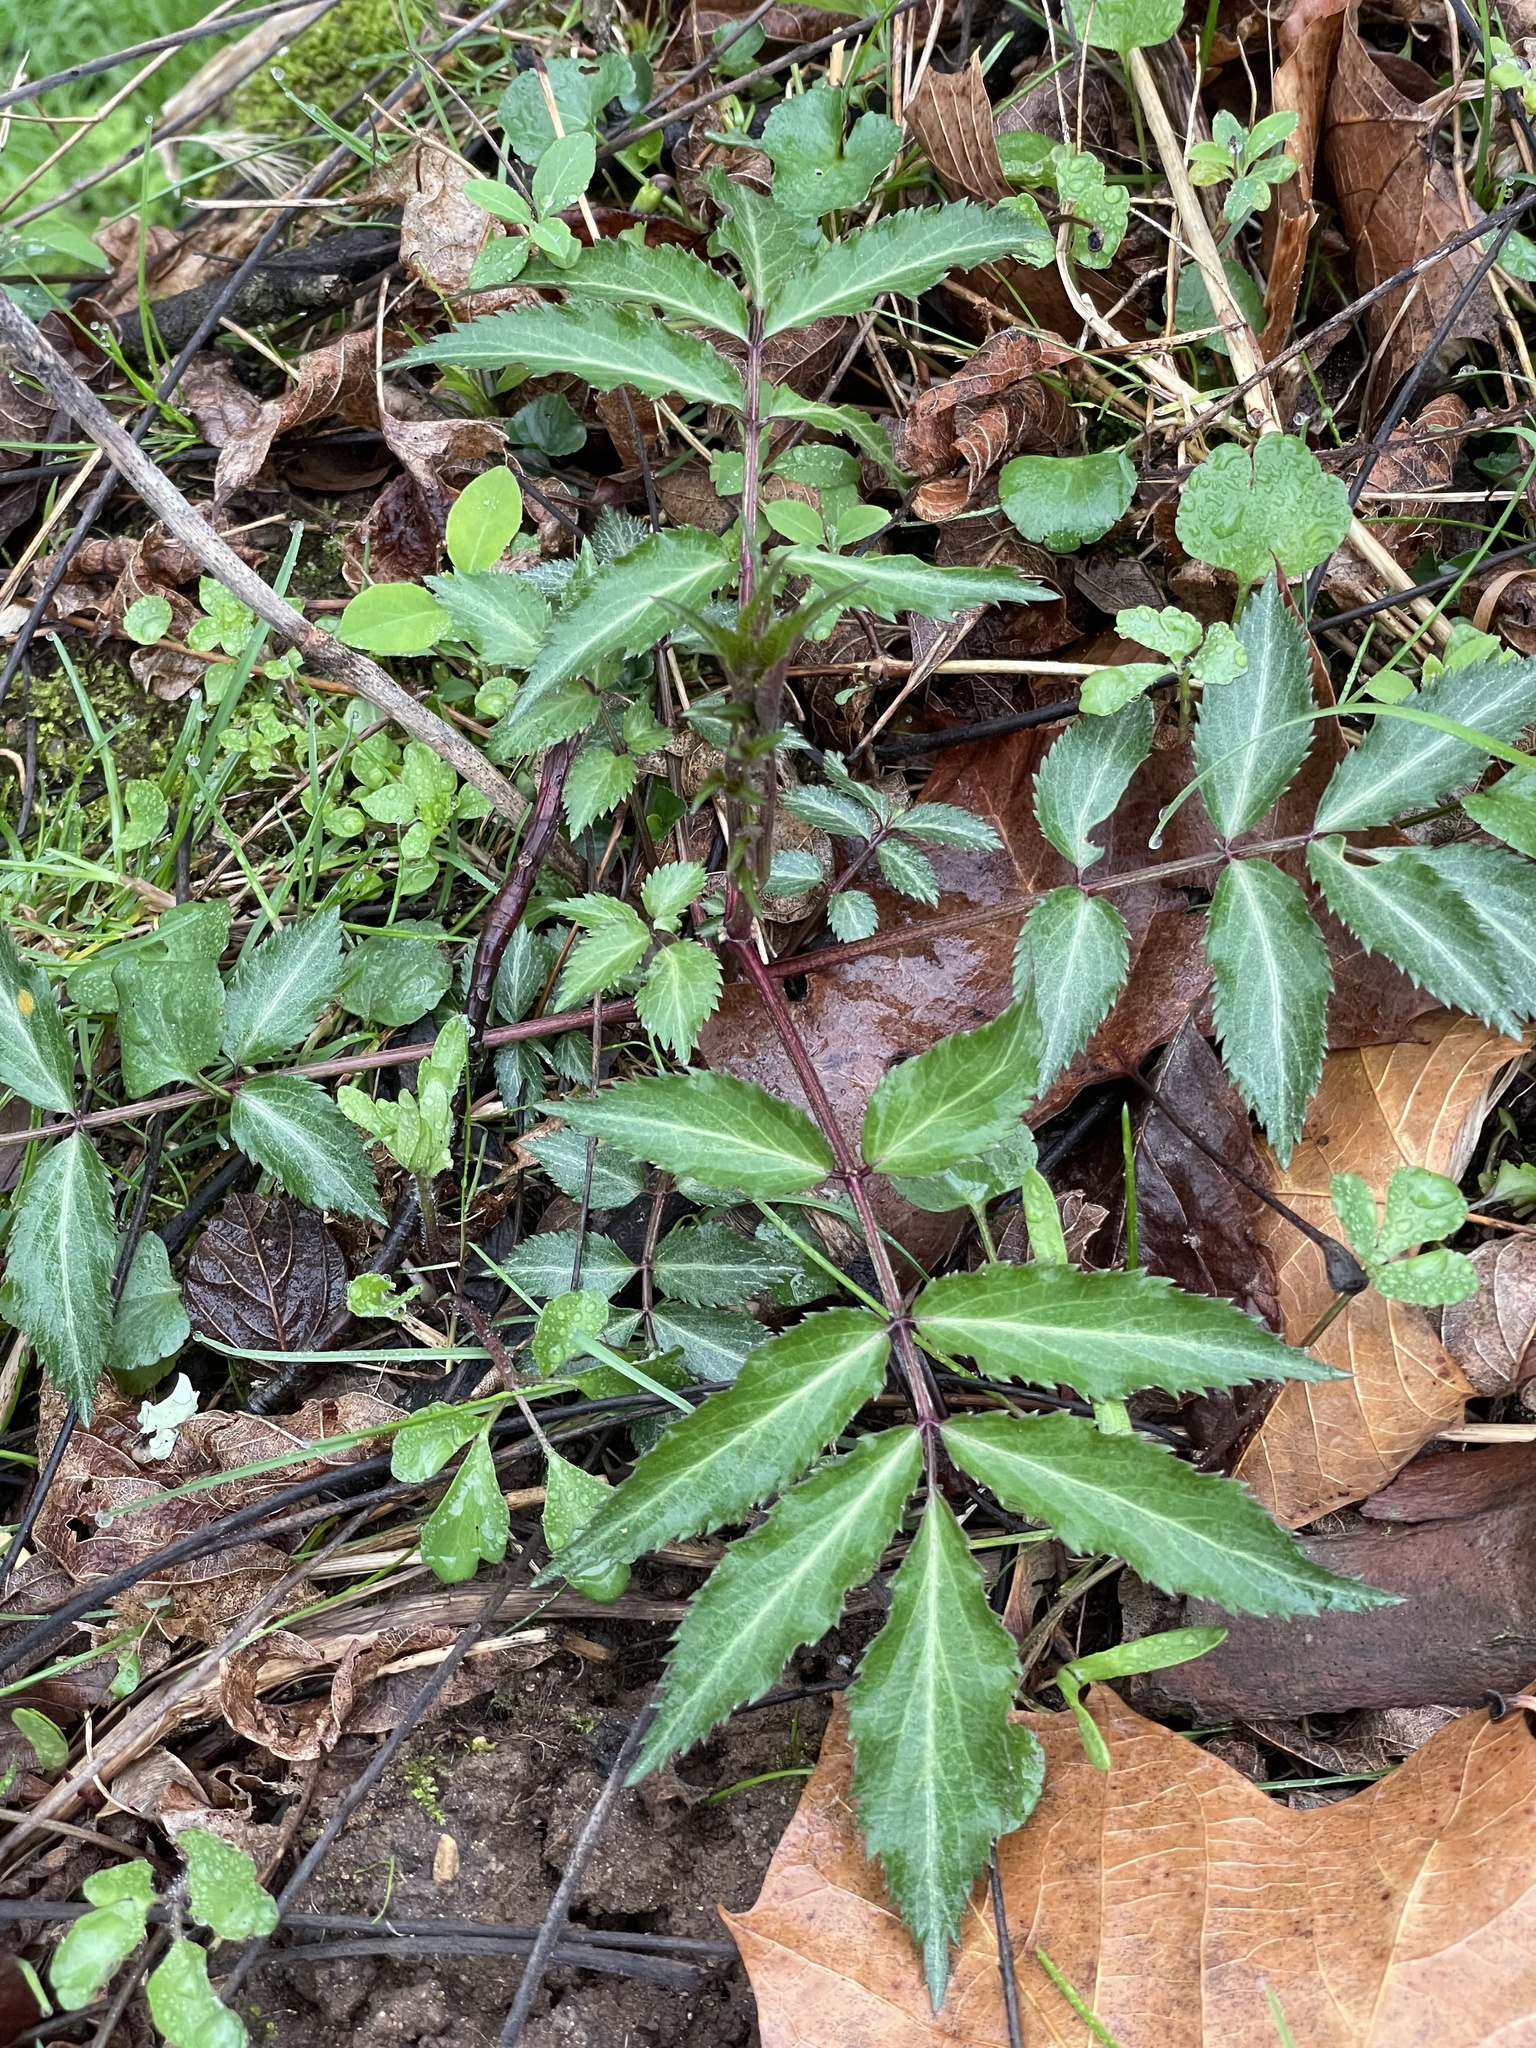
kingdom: Plantae
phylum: Tracheophyta
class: Magnoliopsida
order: Dipsacales
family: Viburnaceae
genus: Sambucus
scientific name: Sambucus canadensis
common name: American elder
